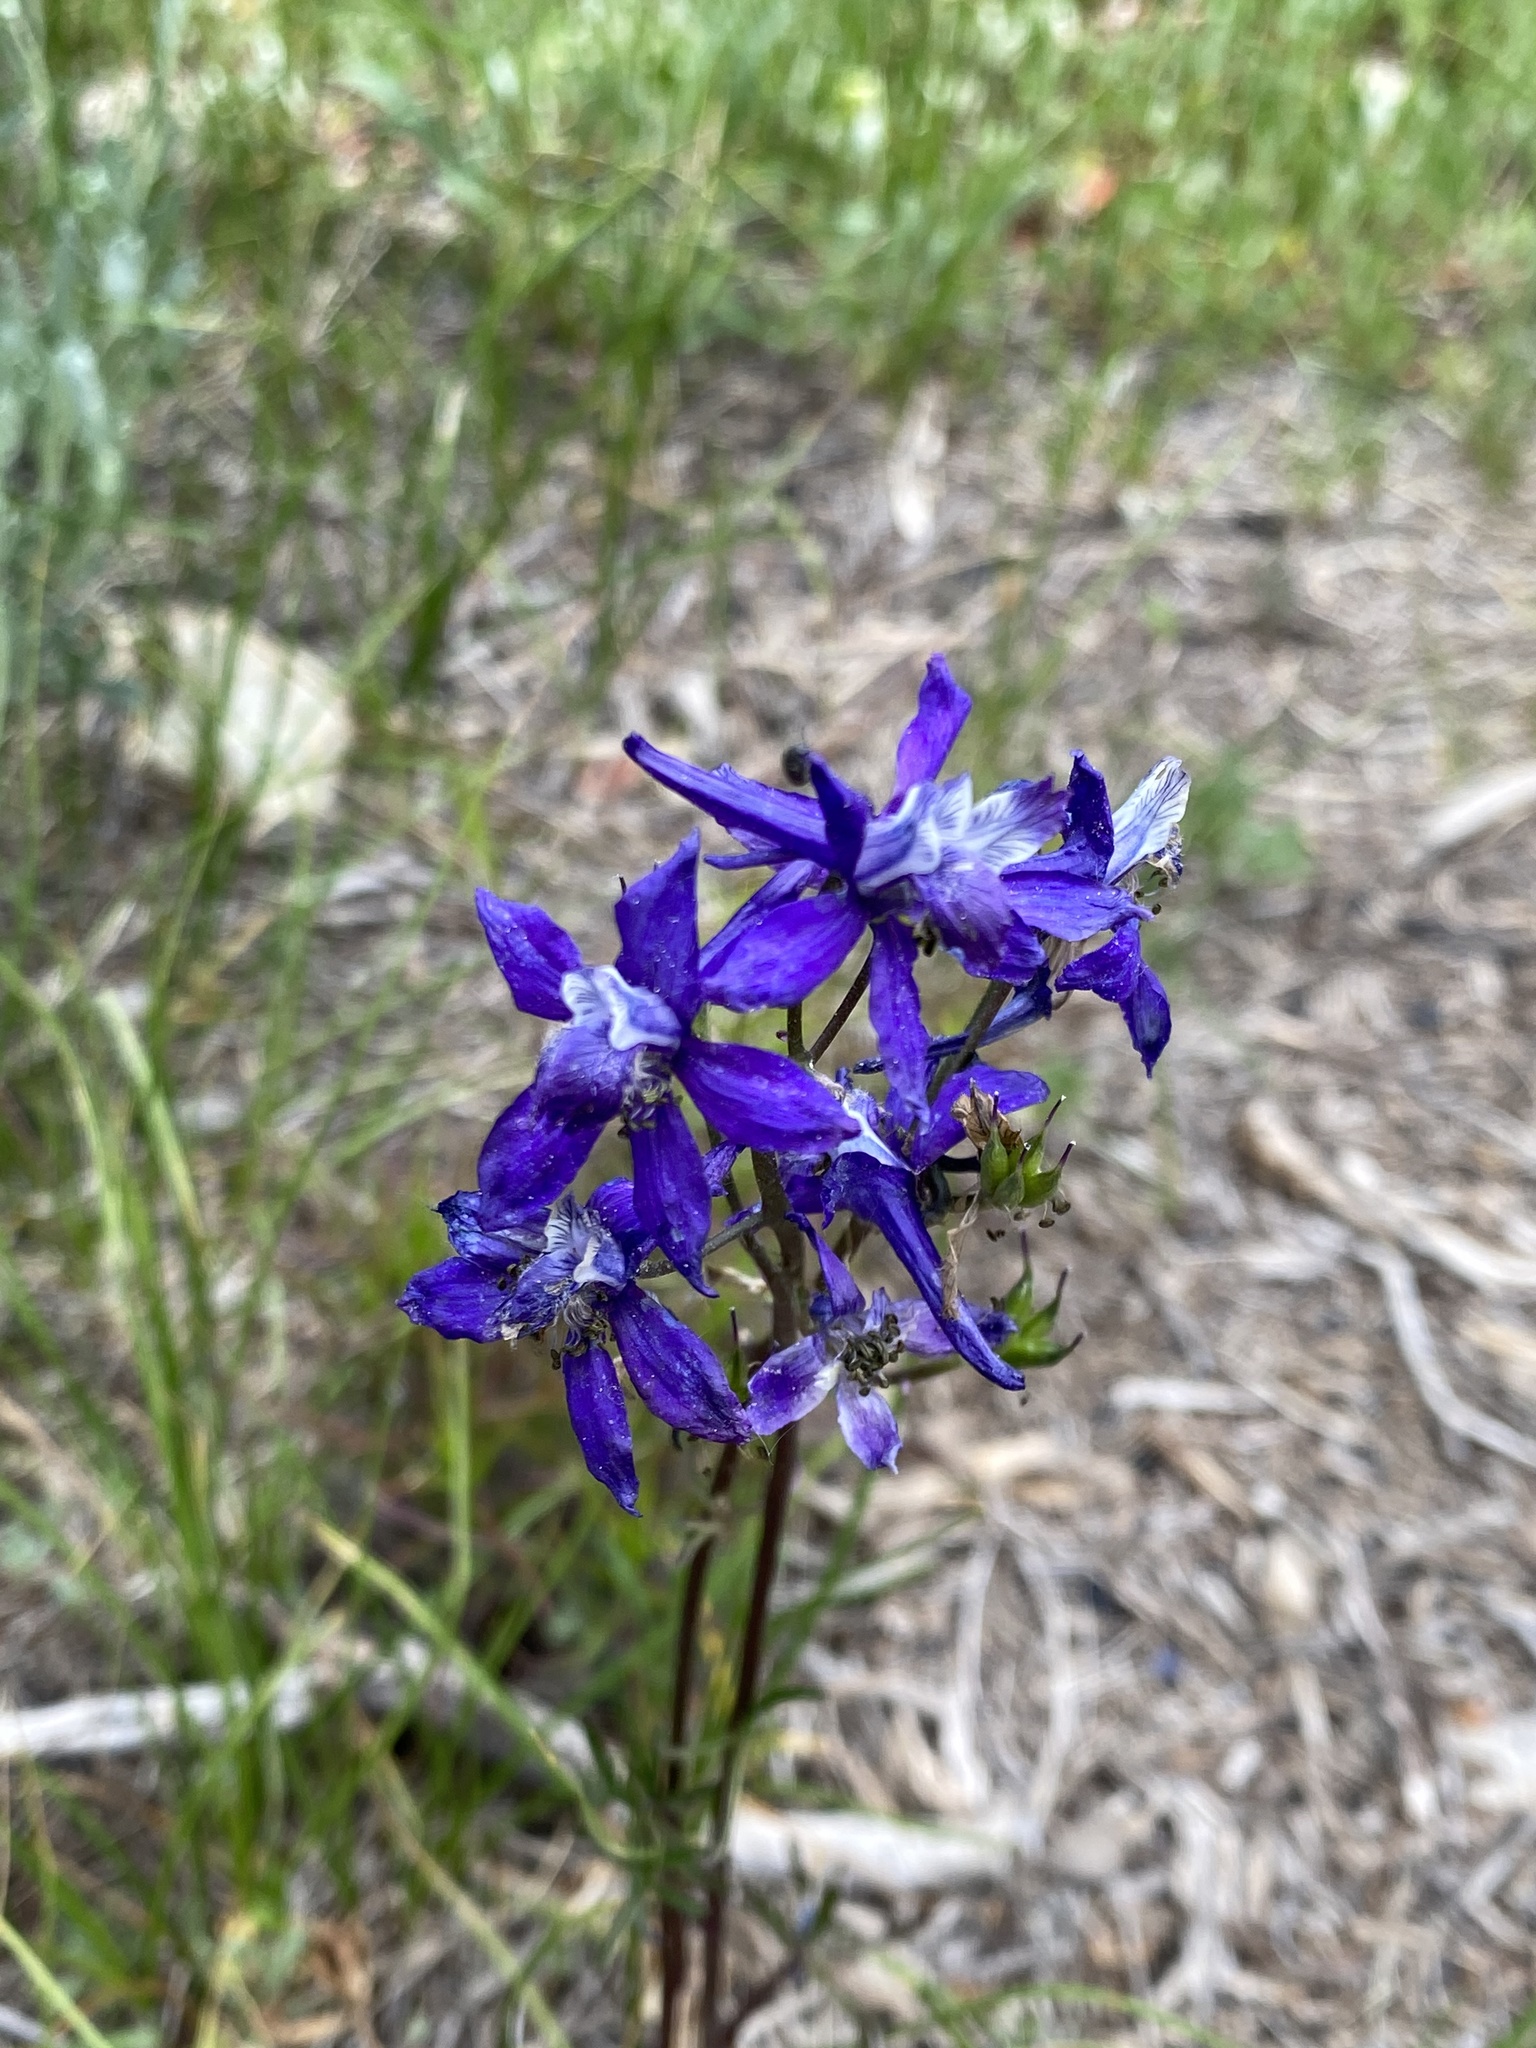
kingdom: Plantae
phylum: Tracheophyta
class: Magnoliopsida
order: Ranunculales
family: Ranunculaceae
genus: Delphinium
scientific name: Delphinium nuttallianum
